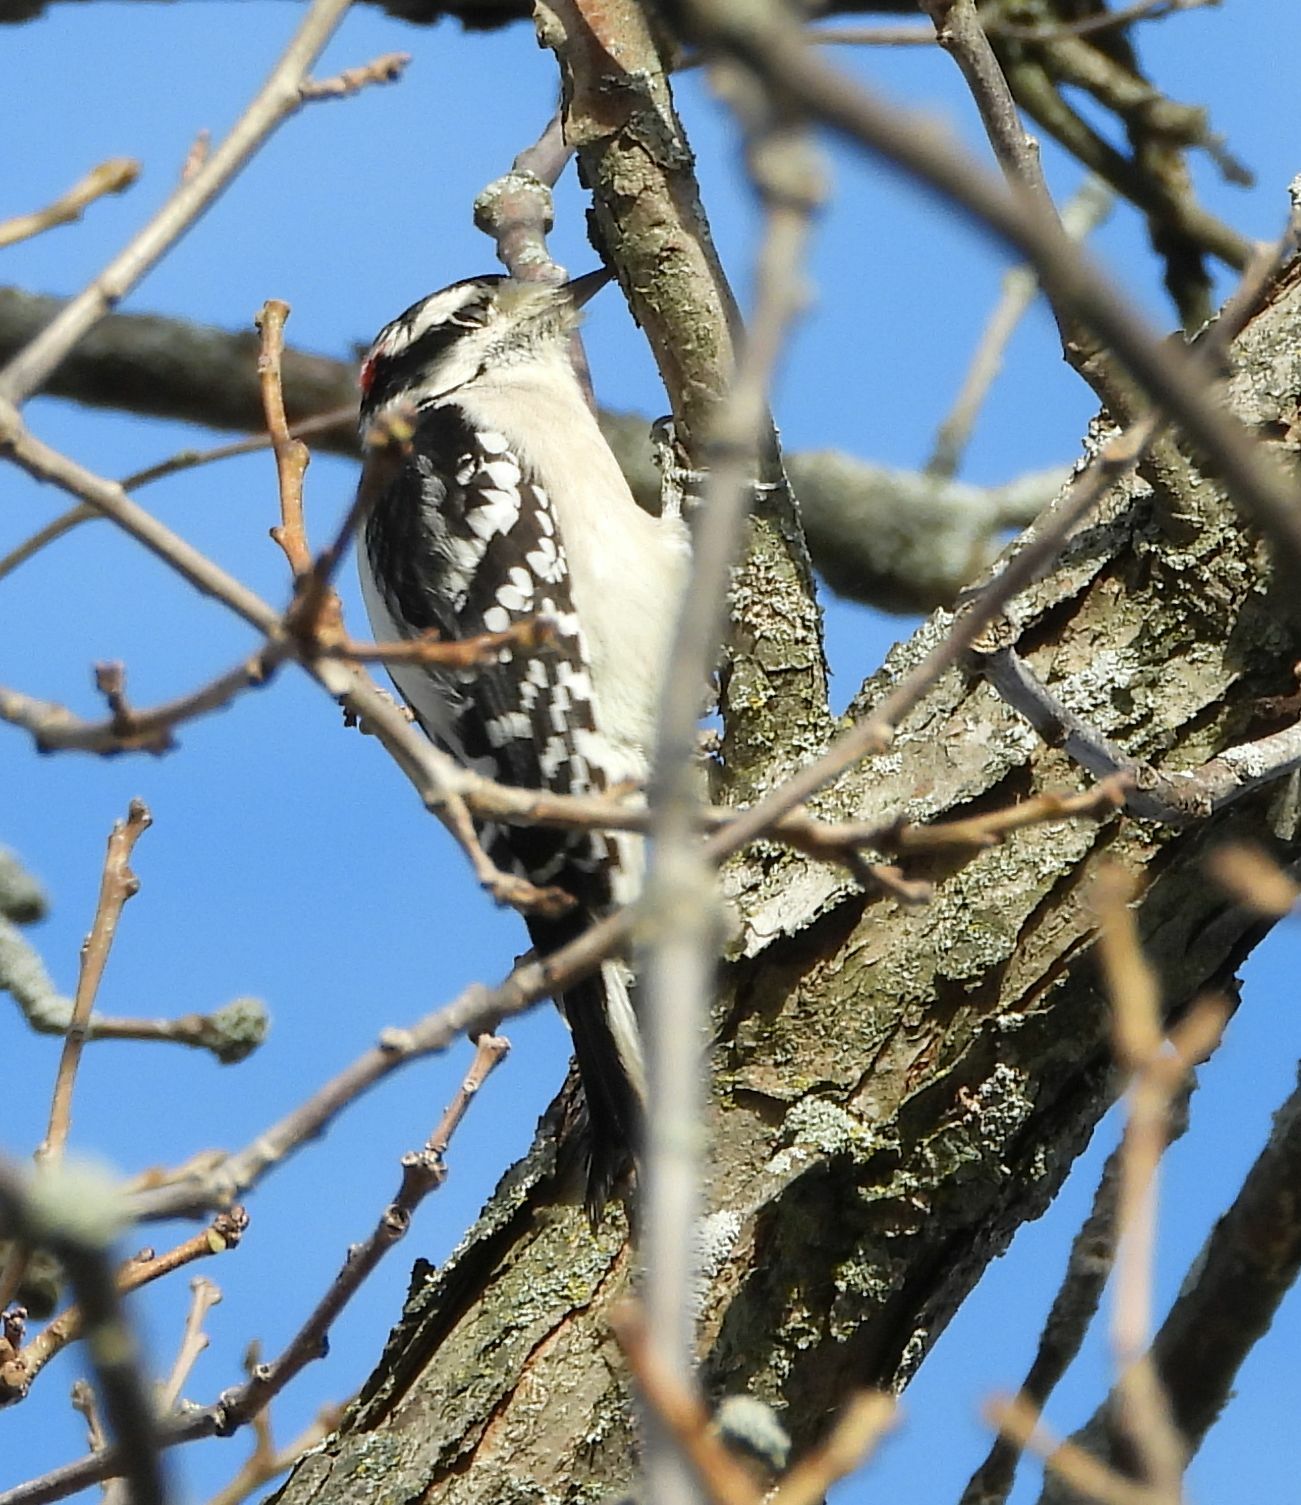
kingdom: Animalia
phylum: Chordata
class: Aves
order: Piciformes
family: Picidae
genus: Dryobates
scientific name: Dryobates pubescens
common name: Downy woodpecker
